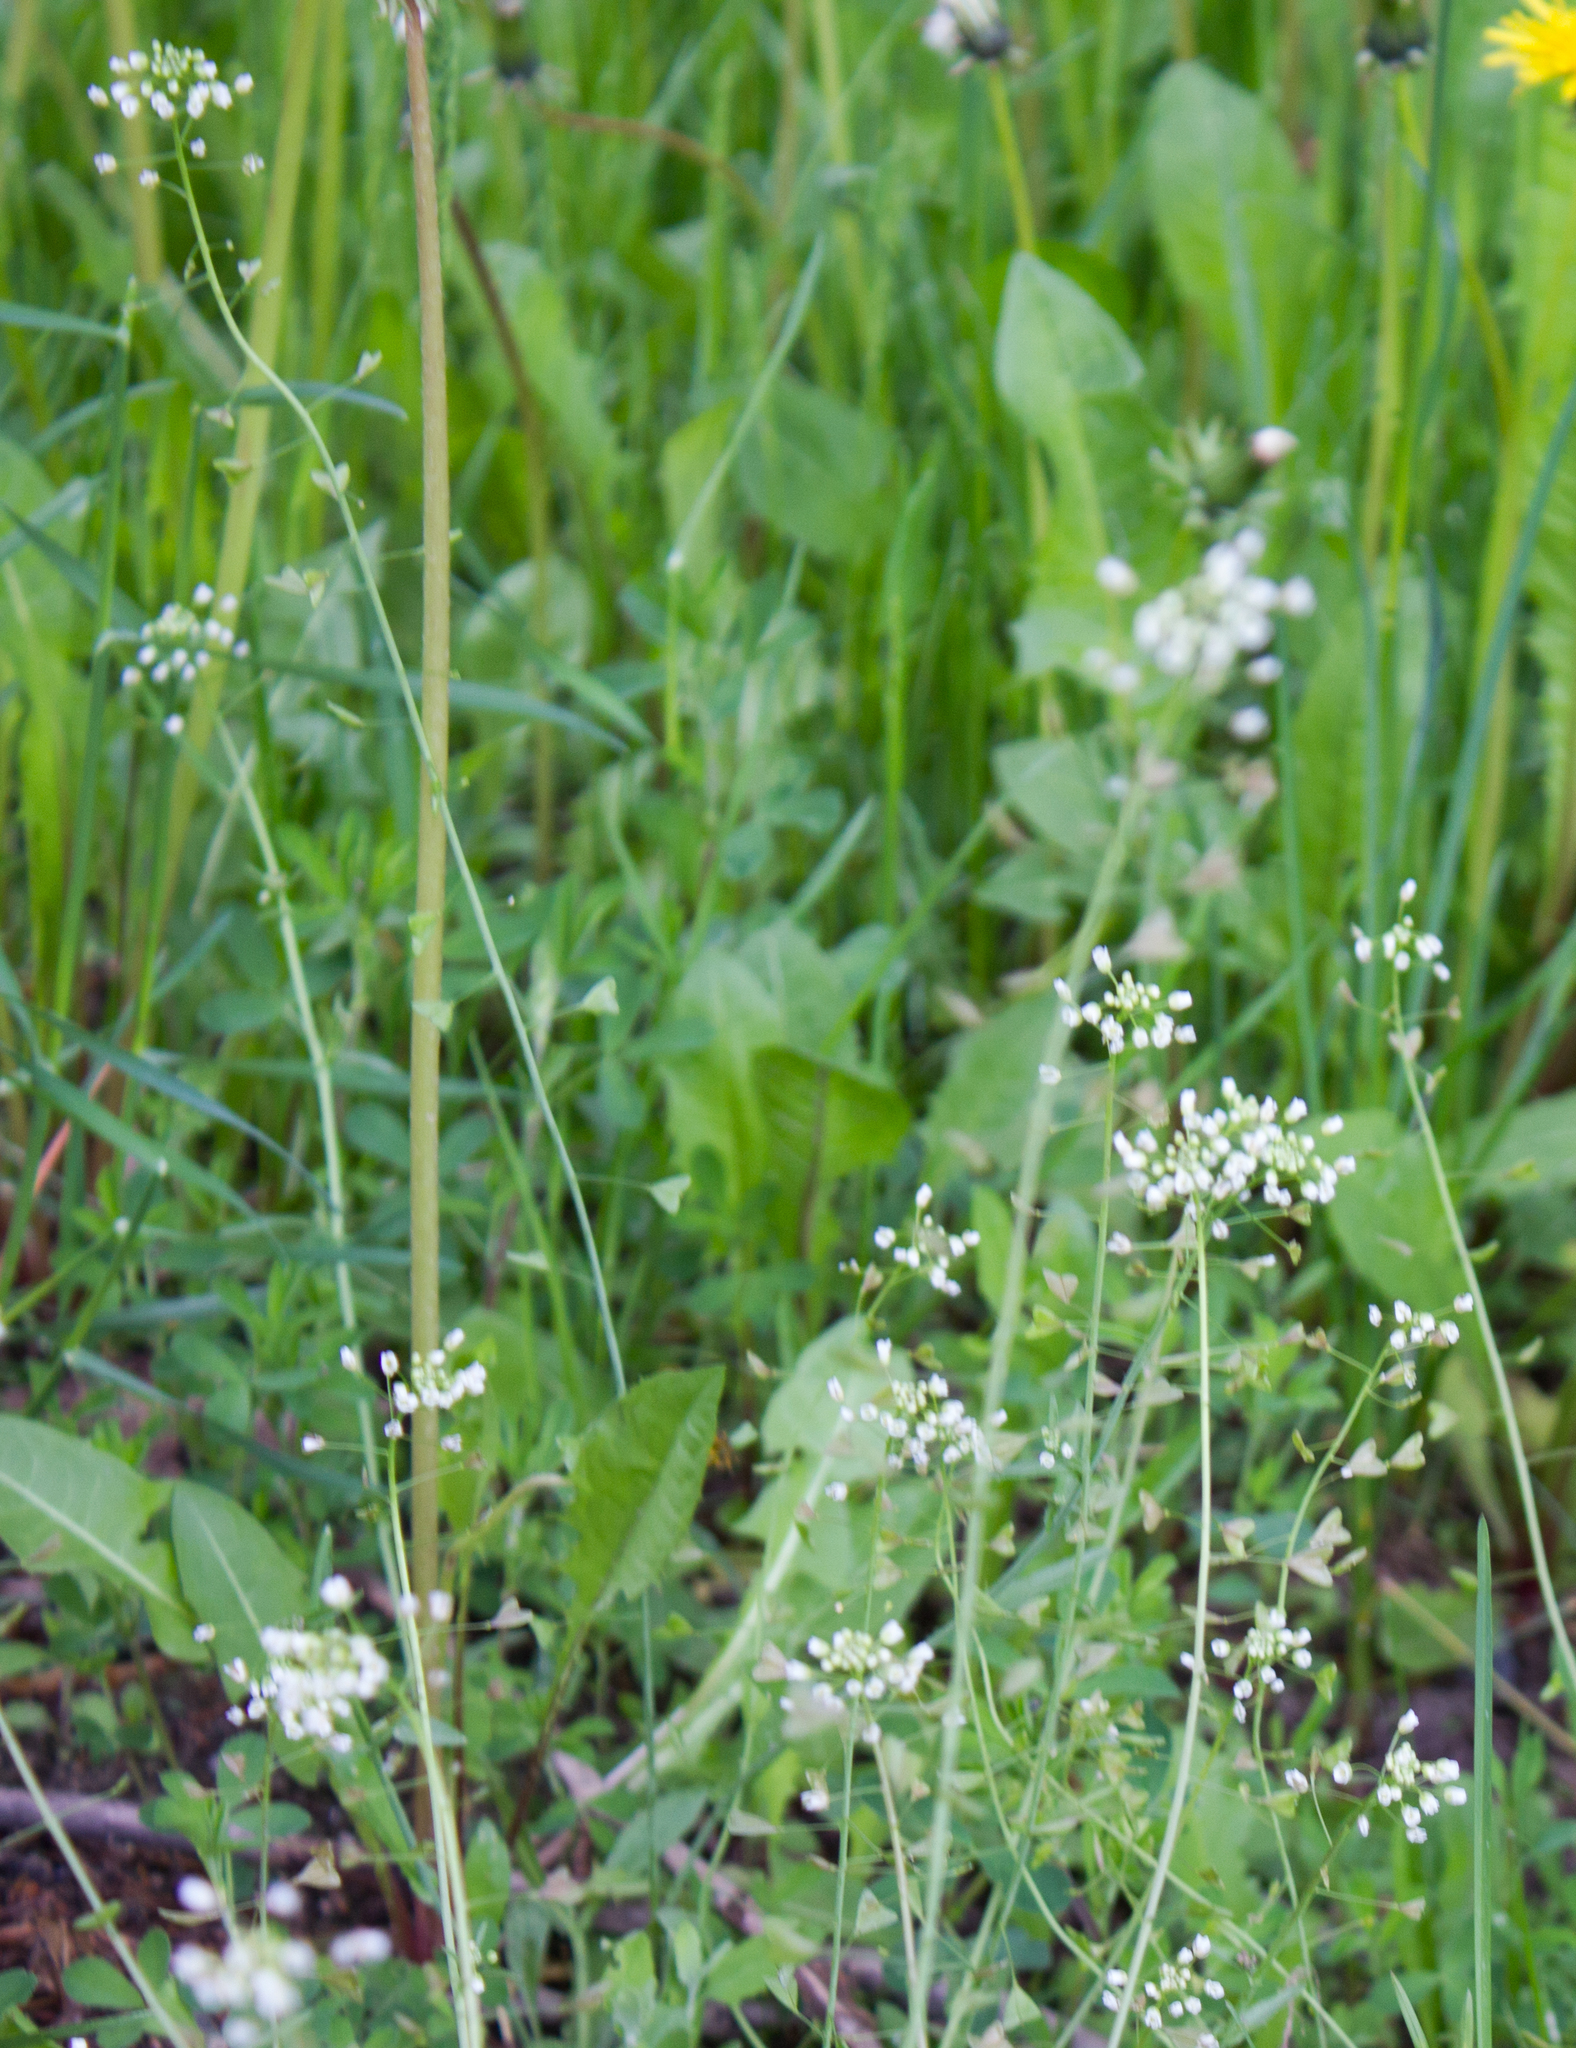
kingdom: Plantae
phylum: Tracheophyta
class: Magnoliopsida
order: Brassicales
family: Brassicaceae
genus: Capsella
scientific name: Capsella bursa-pastoris
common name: Shepherd's purse
